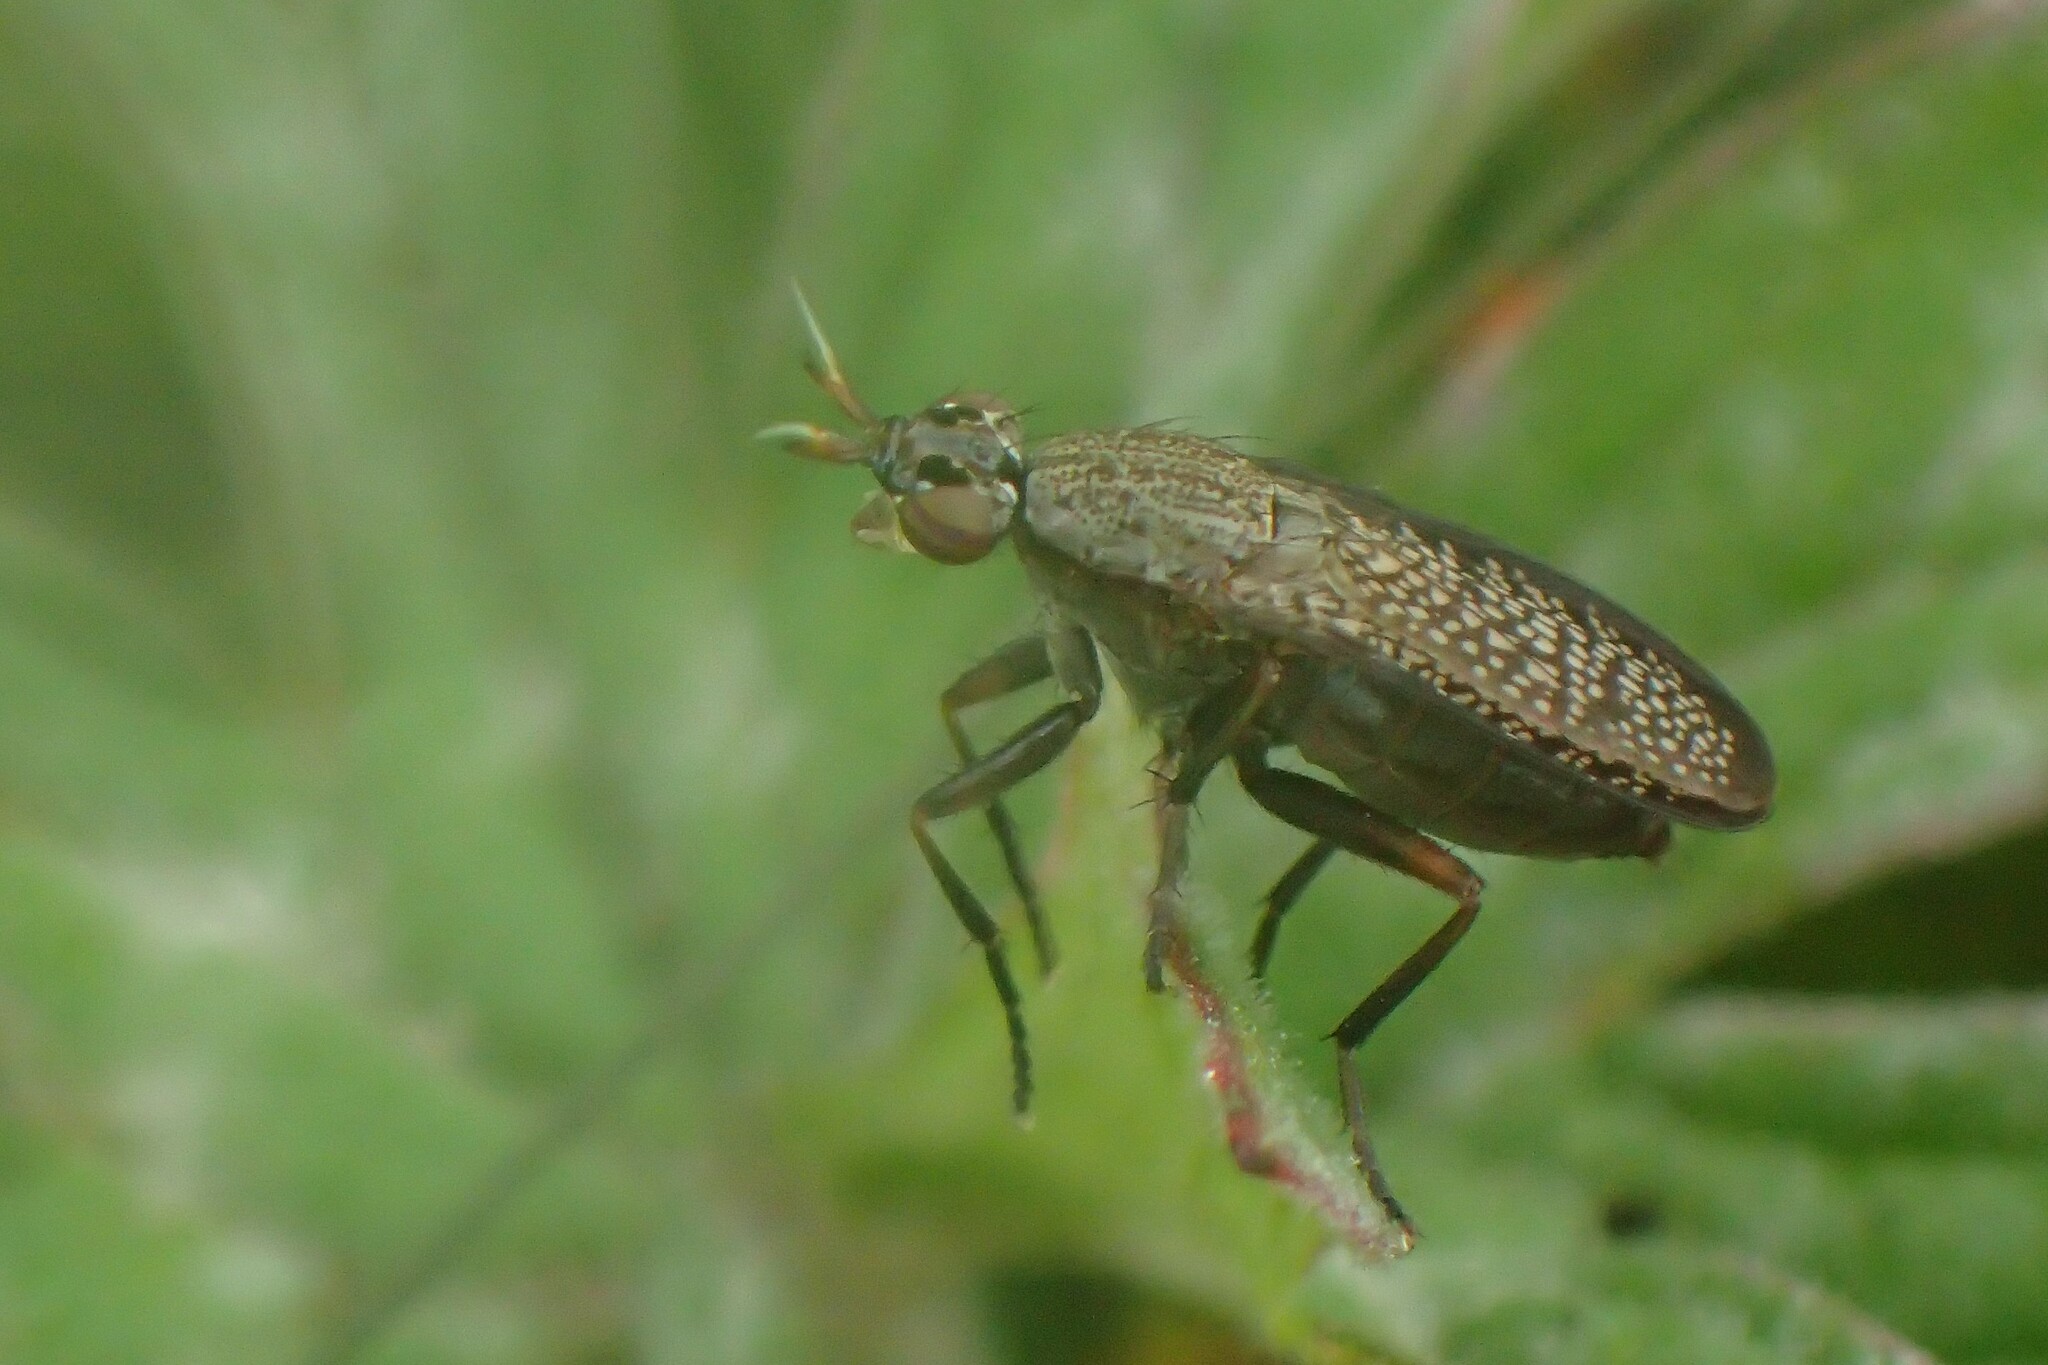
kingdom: Animalia
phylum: Arthropoda
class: Insecta
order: Diptera
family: Sciomyzidae
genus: Coremacera
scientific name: Coremacera marginata
